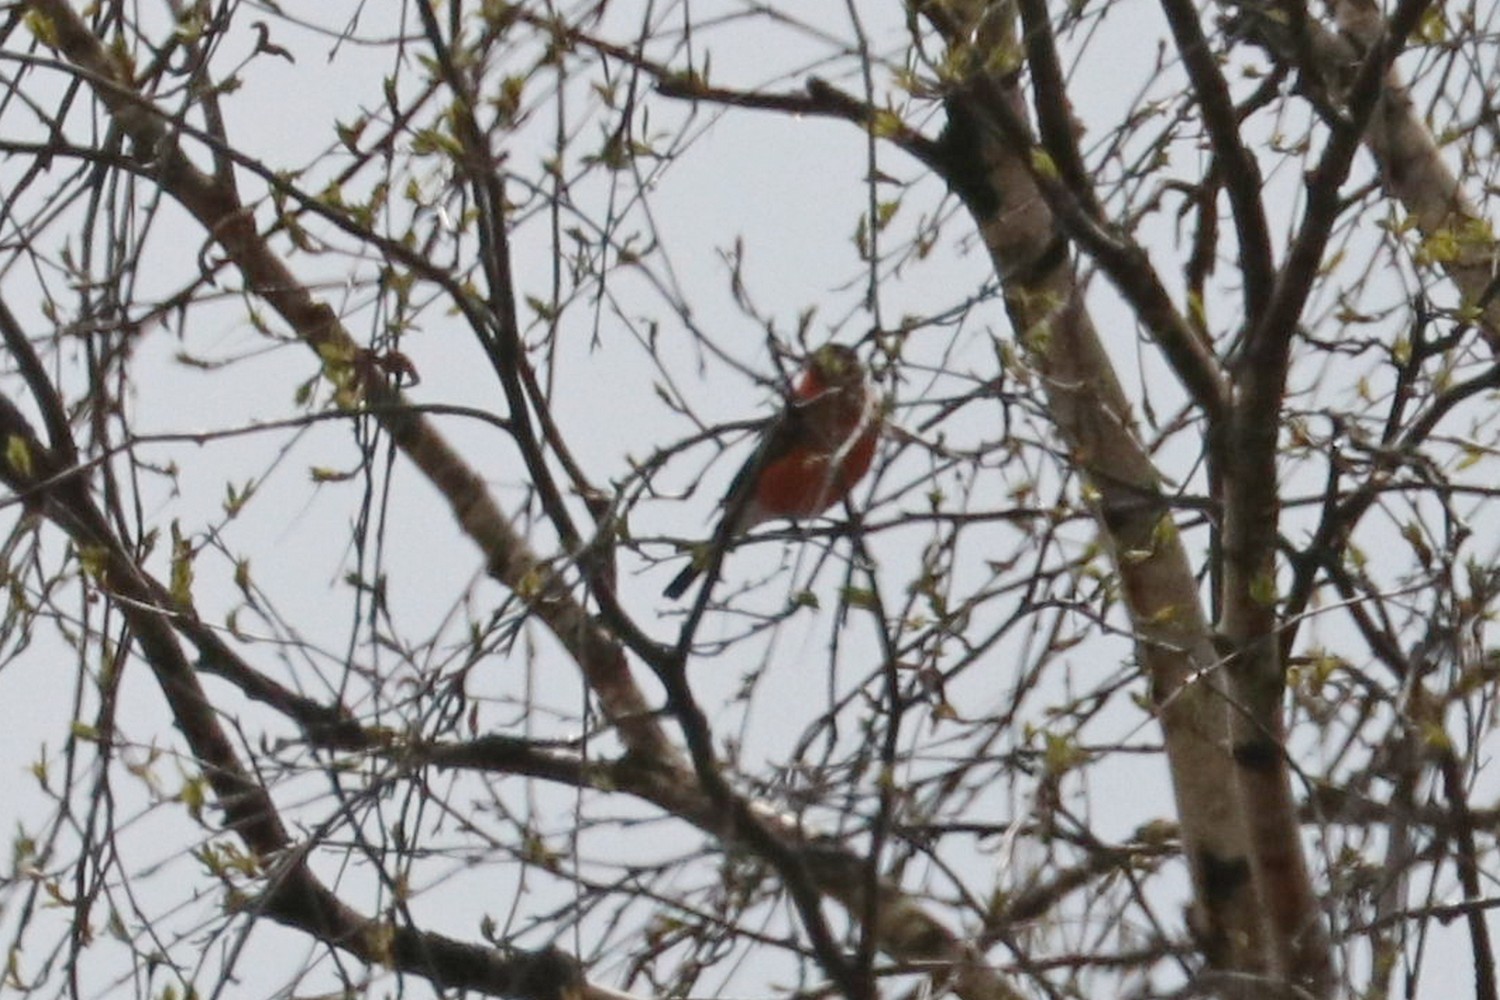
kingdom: Animalia
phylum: Chordata
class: Aves
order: Passeriformes
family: Fringillidae
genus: Pyrrhula
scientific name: Pyrrhula pyrrhula
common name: Eurasian bullfinch
